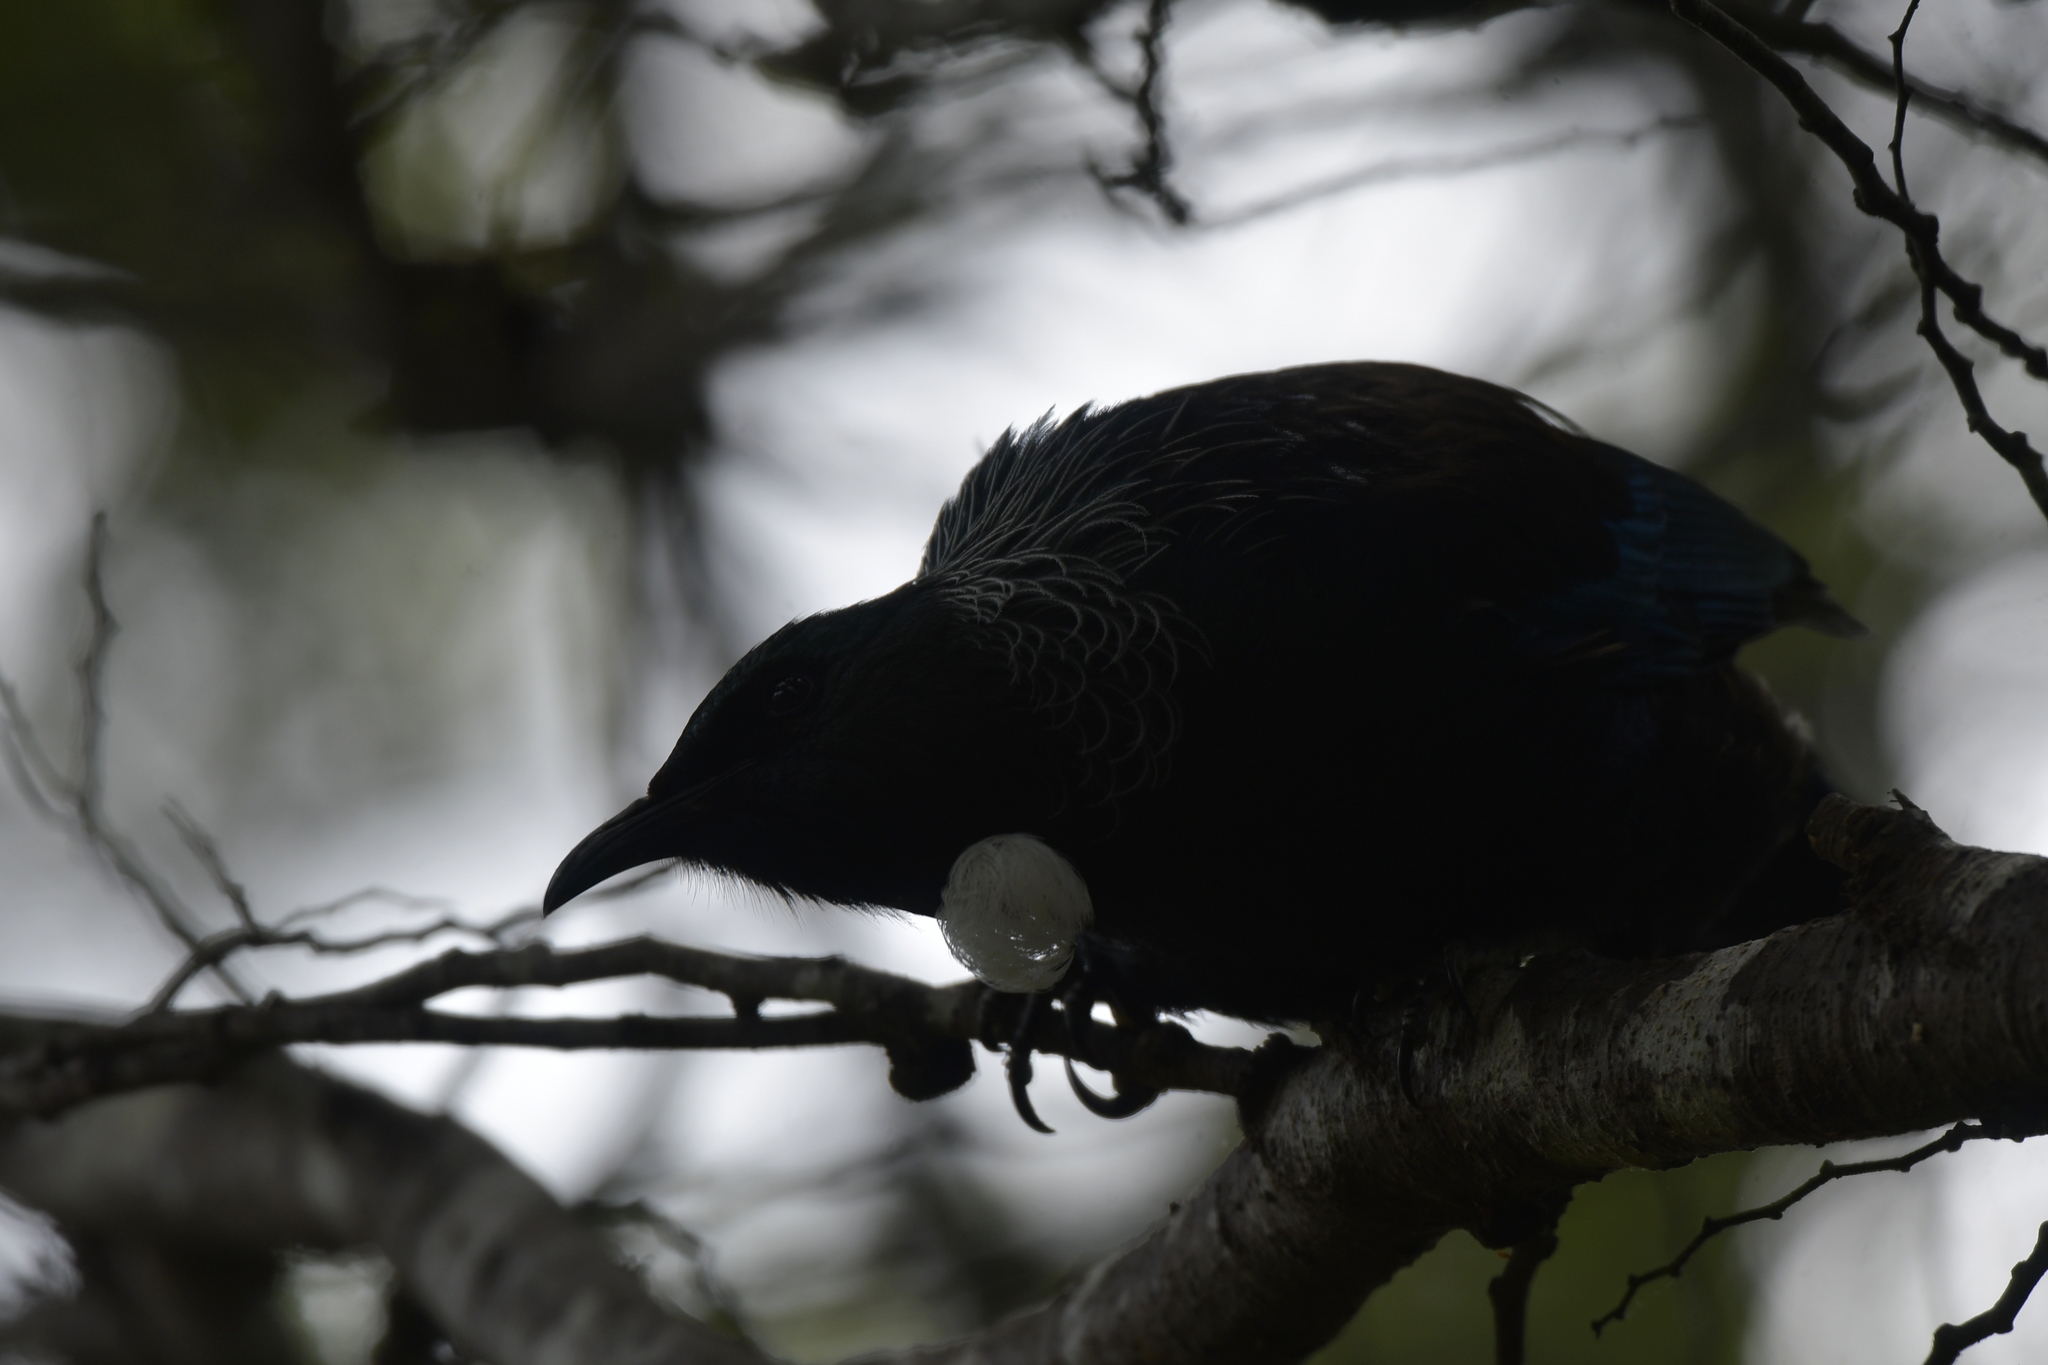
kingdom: Animalia
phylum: Chordata
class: Aves
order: Passeriformes
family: Meliphagidae
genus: Prosthemadera
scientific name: Prosthemadera novaeseelandiae
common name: Tui
